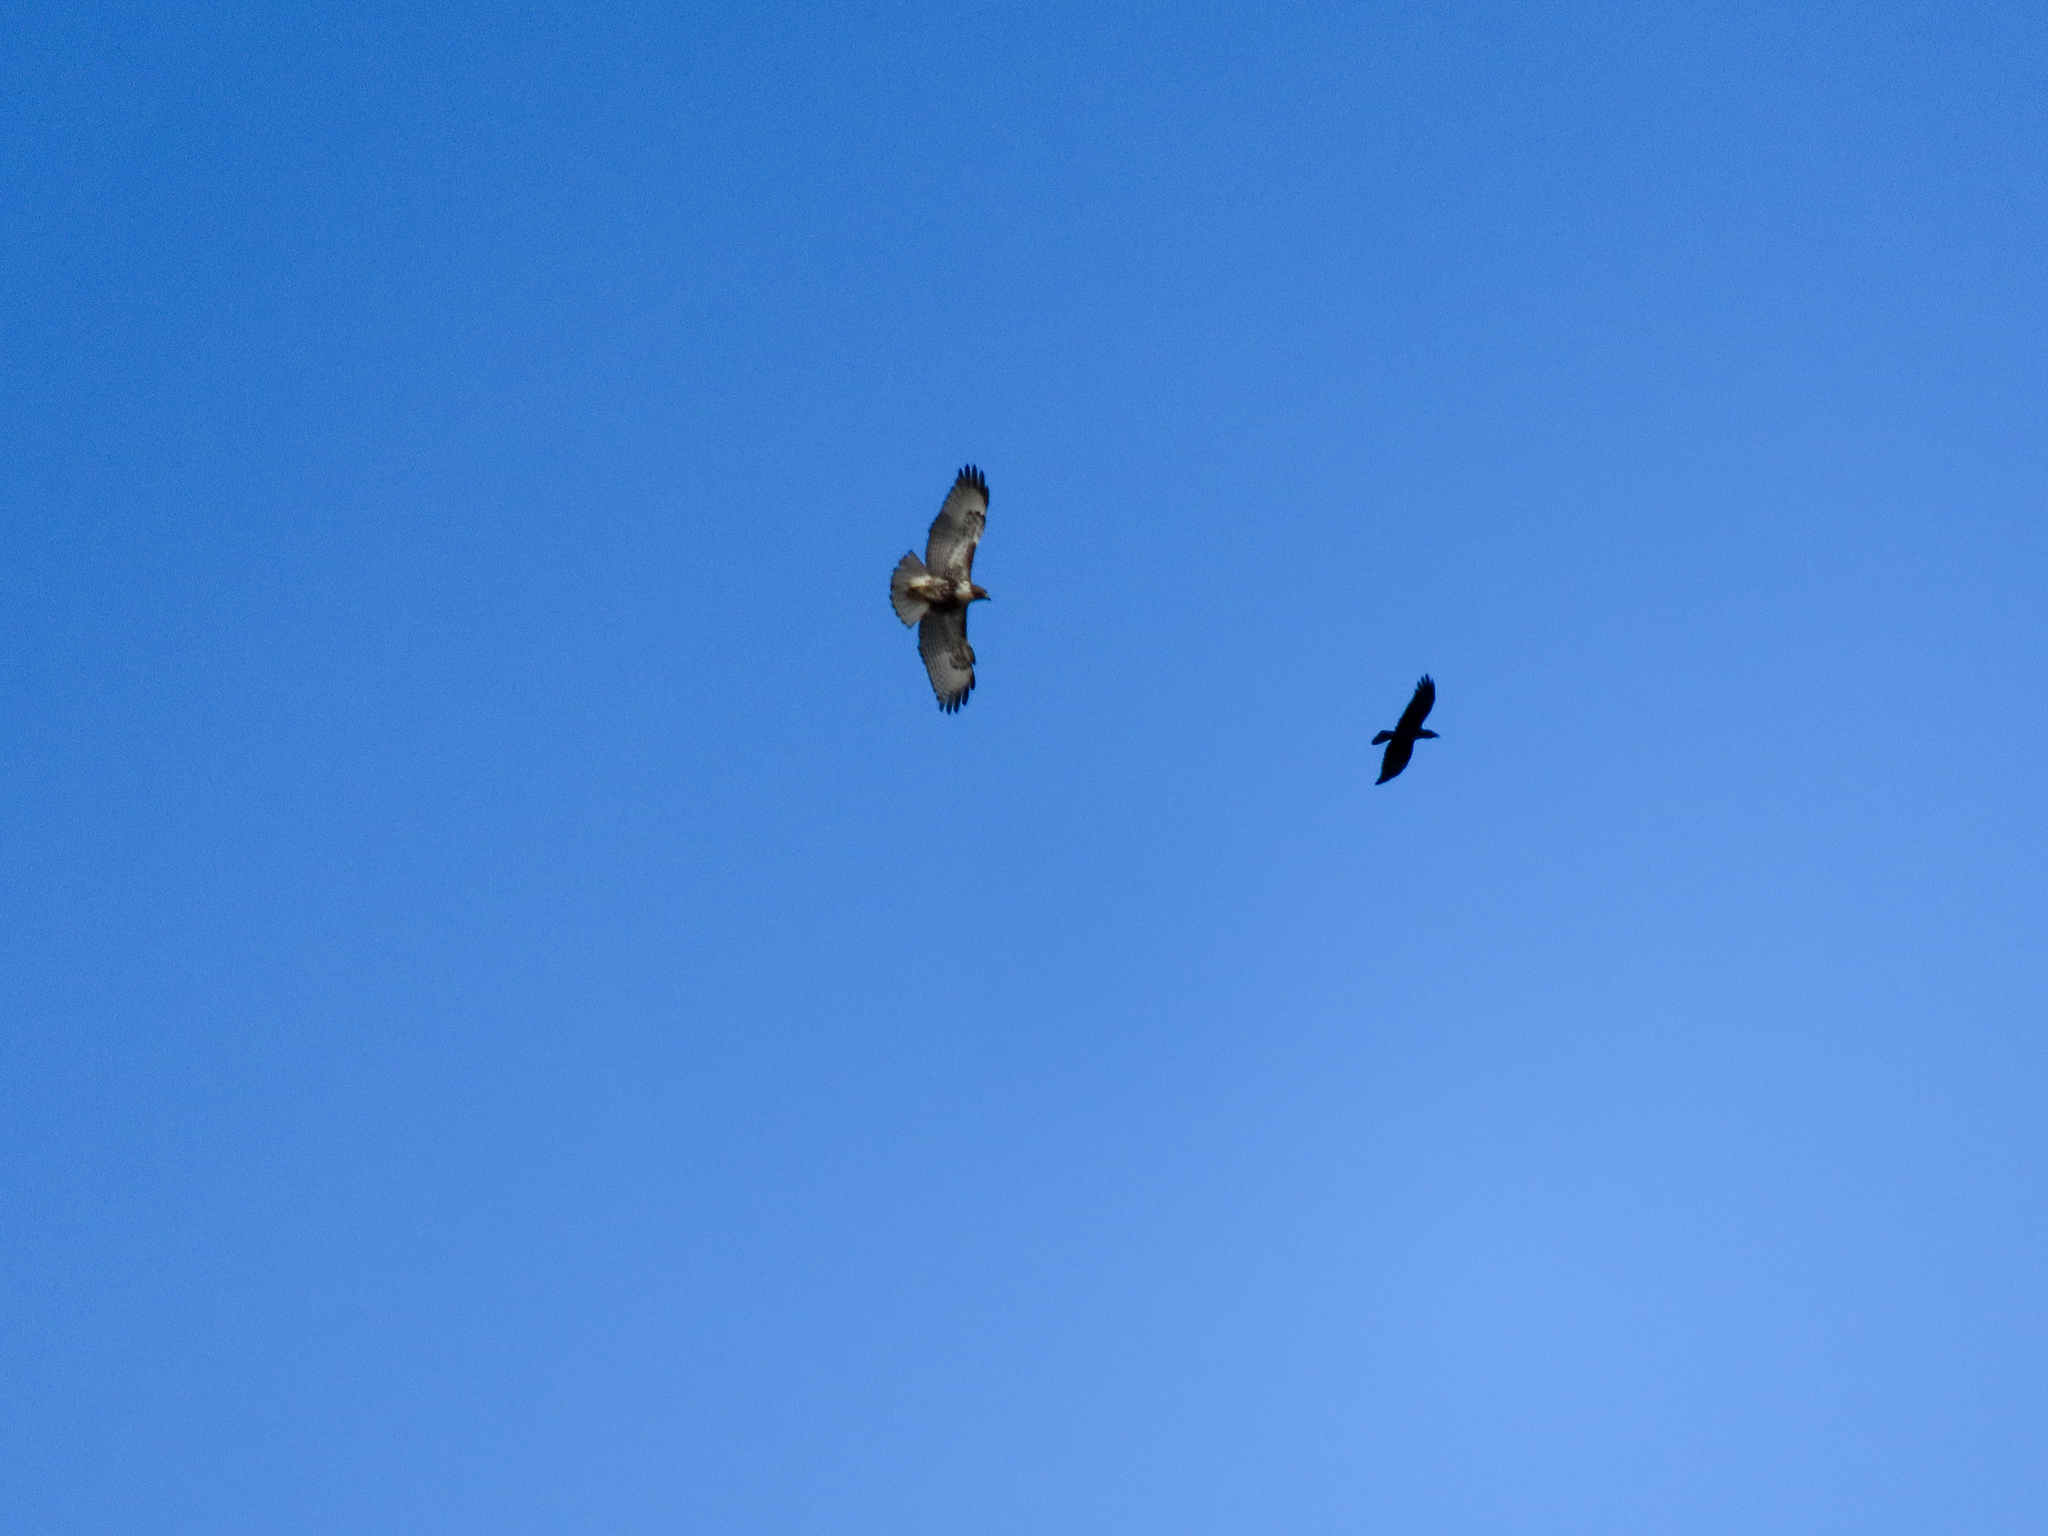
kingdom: Animalia
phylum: Chordata
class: Aves
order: Accipitriformes
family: Accipitridae
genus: Buteo
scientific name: Buteo jamaicensis
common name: Red-tailed hawk
